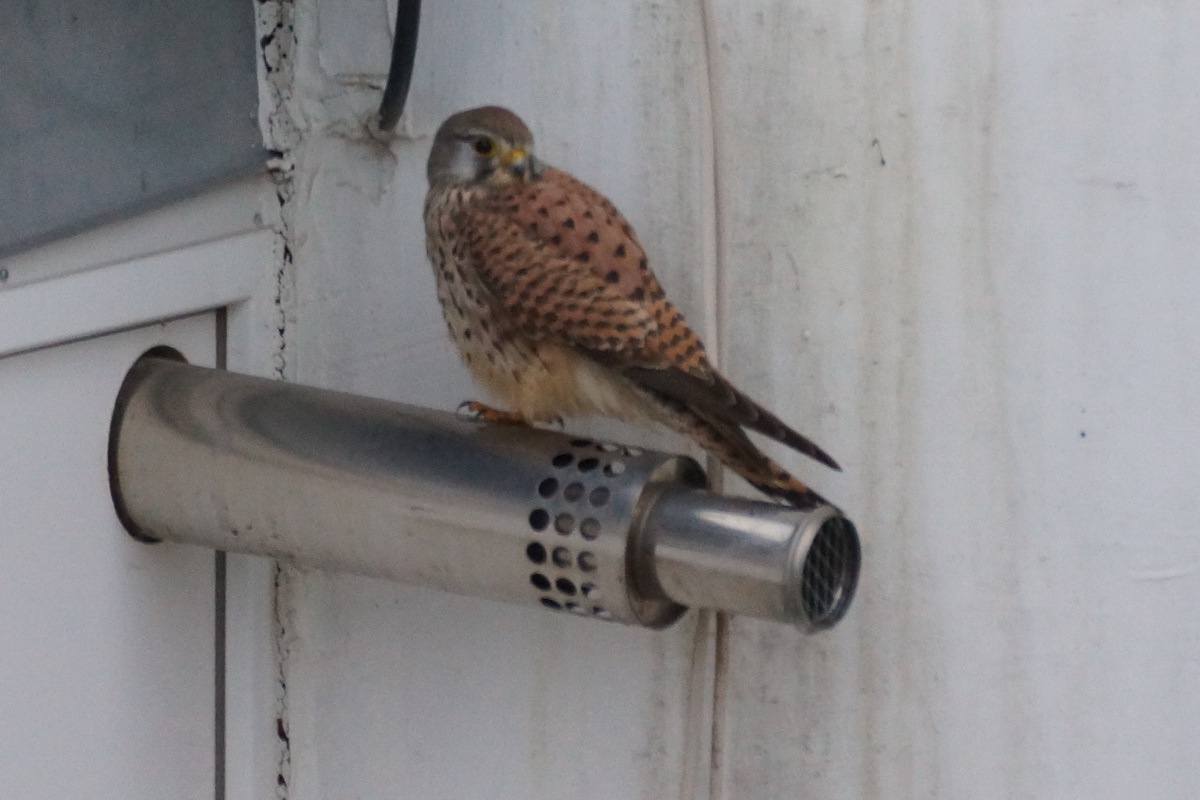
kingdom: Animalia
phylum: Chordata
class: Aves
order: Falconiformes
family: Falconidae
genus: Falco
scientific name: Falco tinnunculus
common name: Common kestrel
